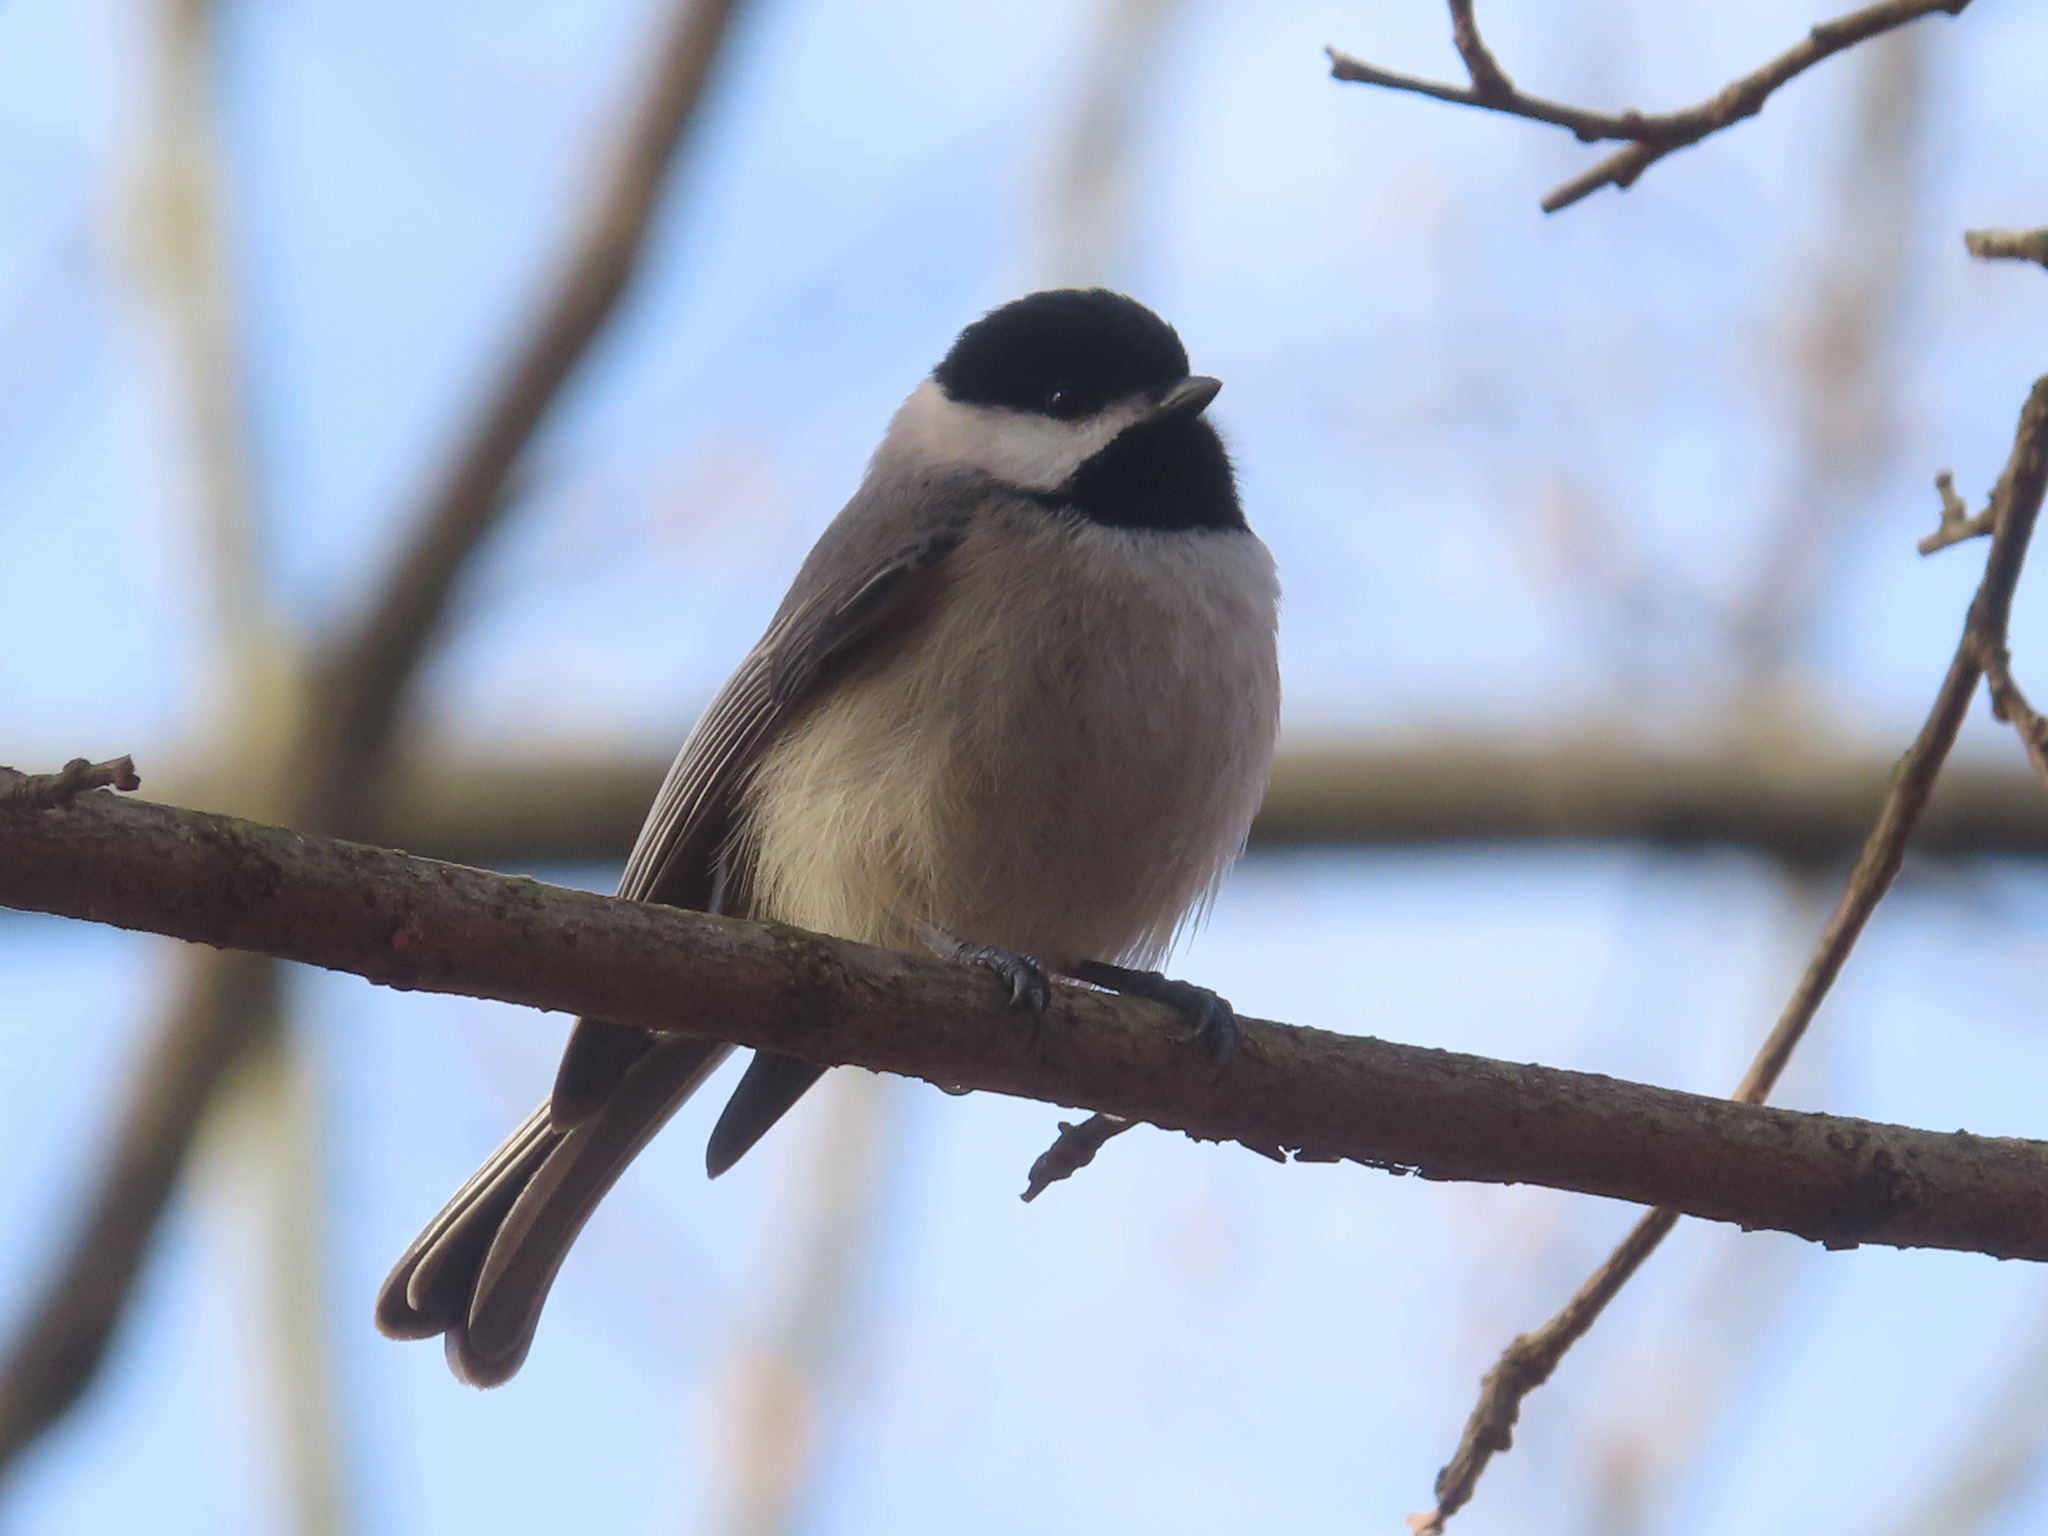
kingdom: Animalia
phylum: Chordata
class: Aves
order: Passeriformes
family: Paridae
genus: Poecile
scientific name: Poecile carolinensis
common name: Carolina chickadee
